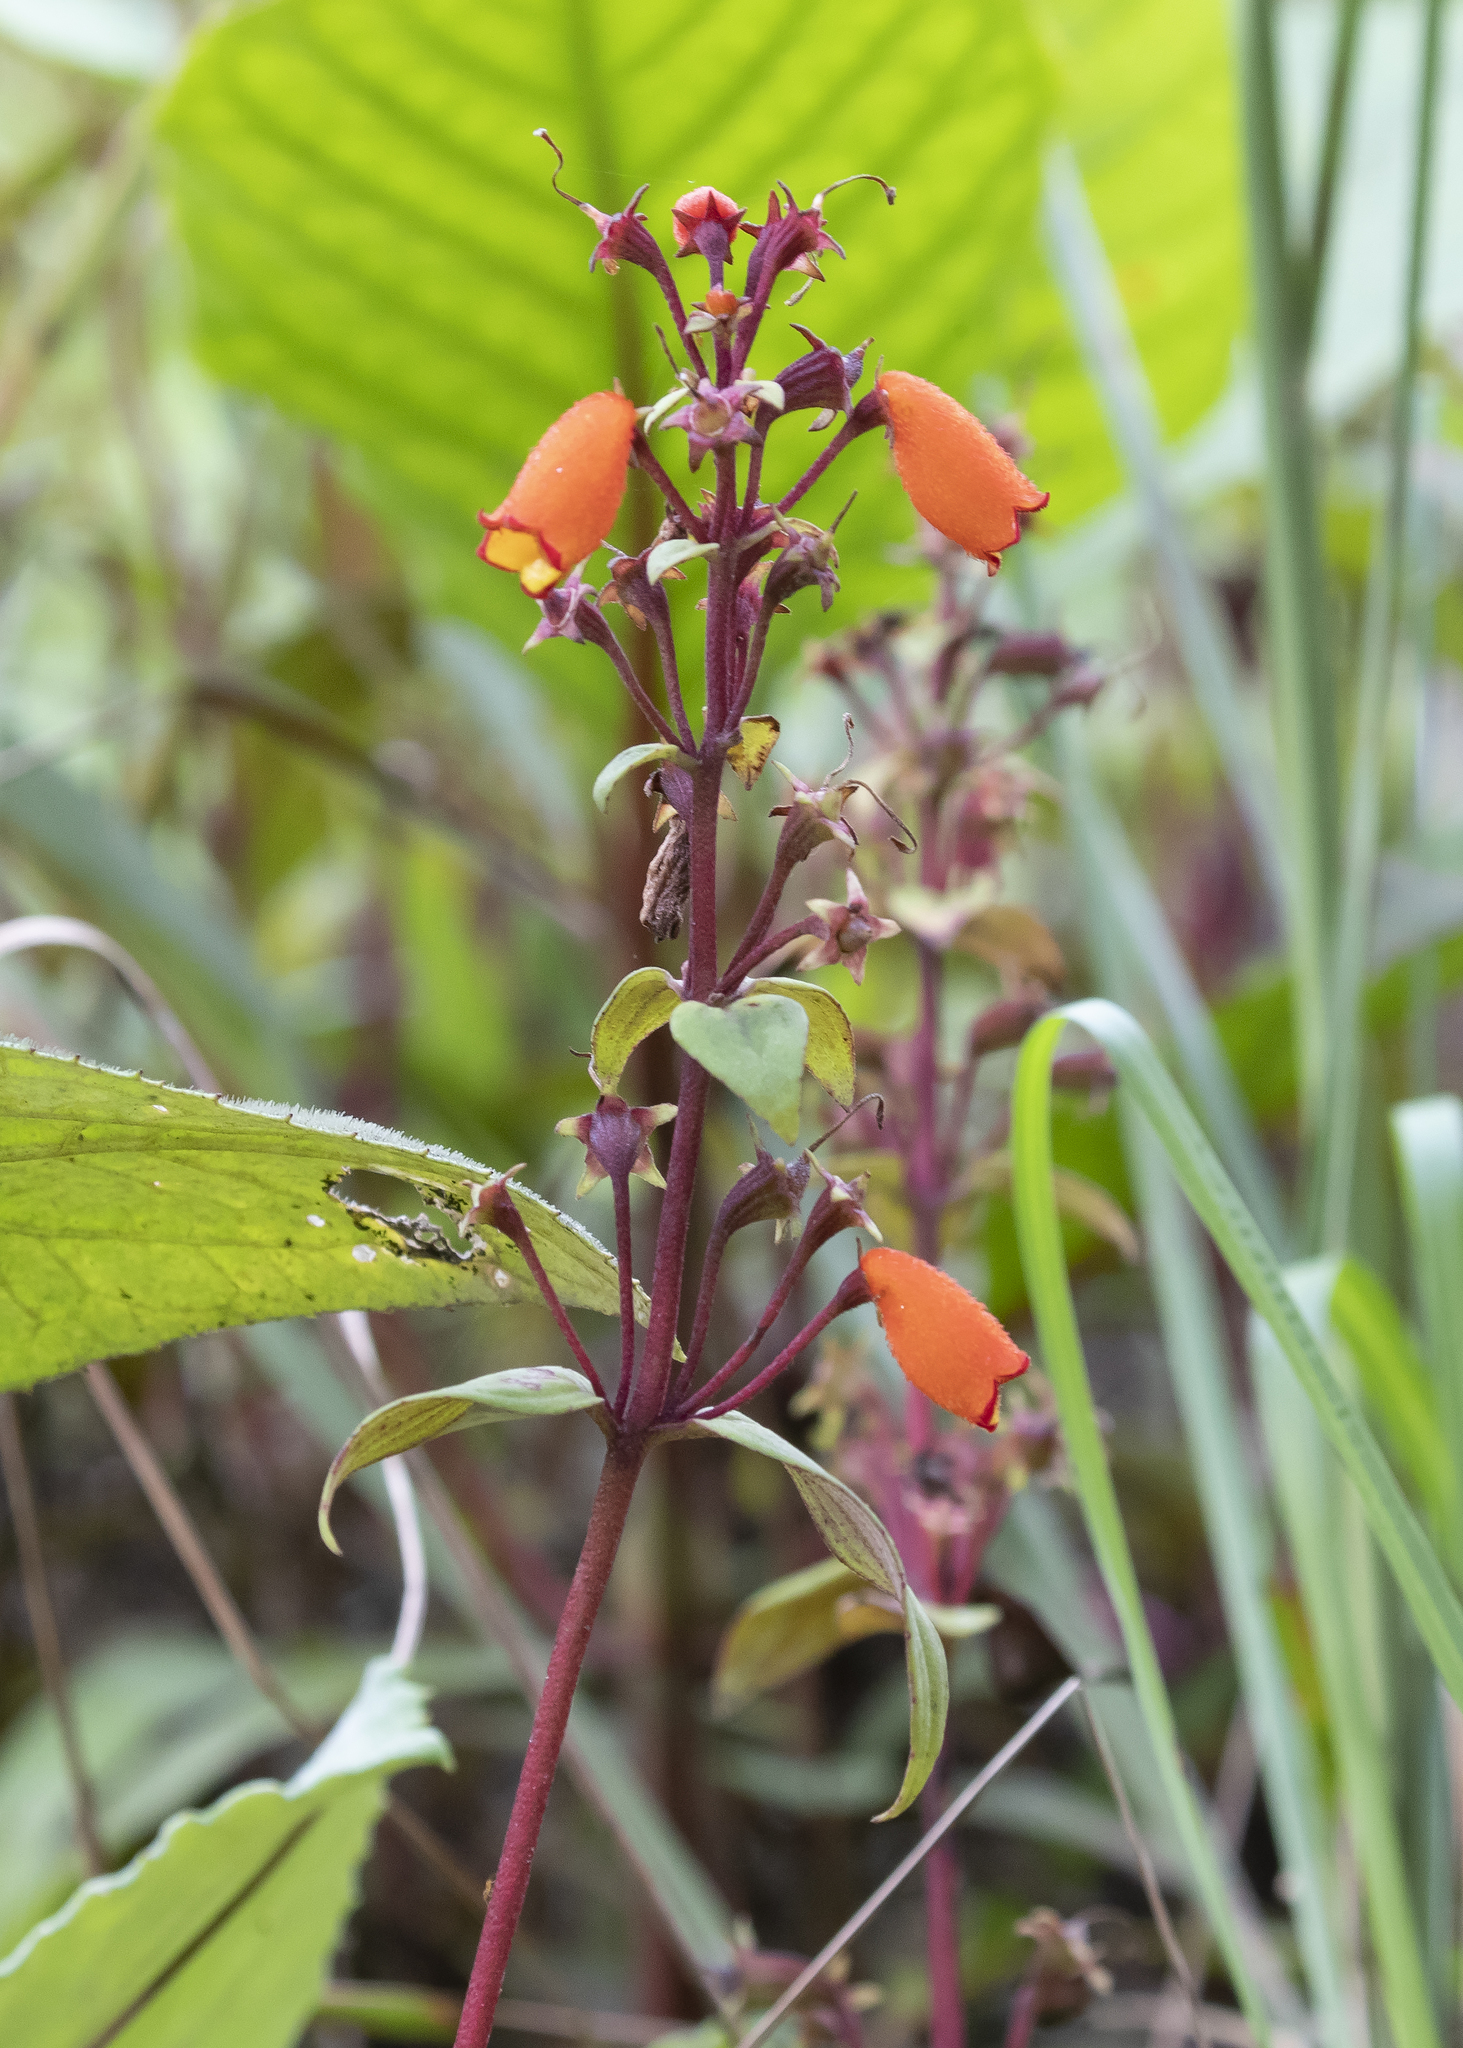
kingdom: Plantae
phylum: Tracheophyta
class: Magnoliopsida
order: Lamiales
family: Gesneriaceae
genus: Seemannia
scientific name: Seemannia sylvatica
